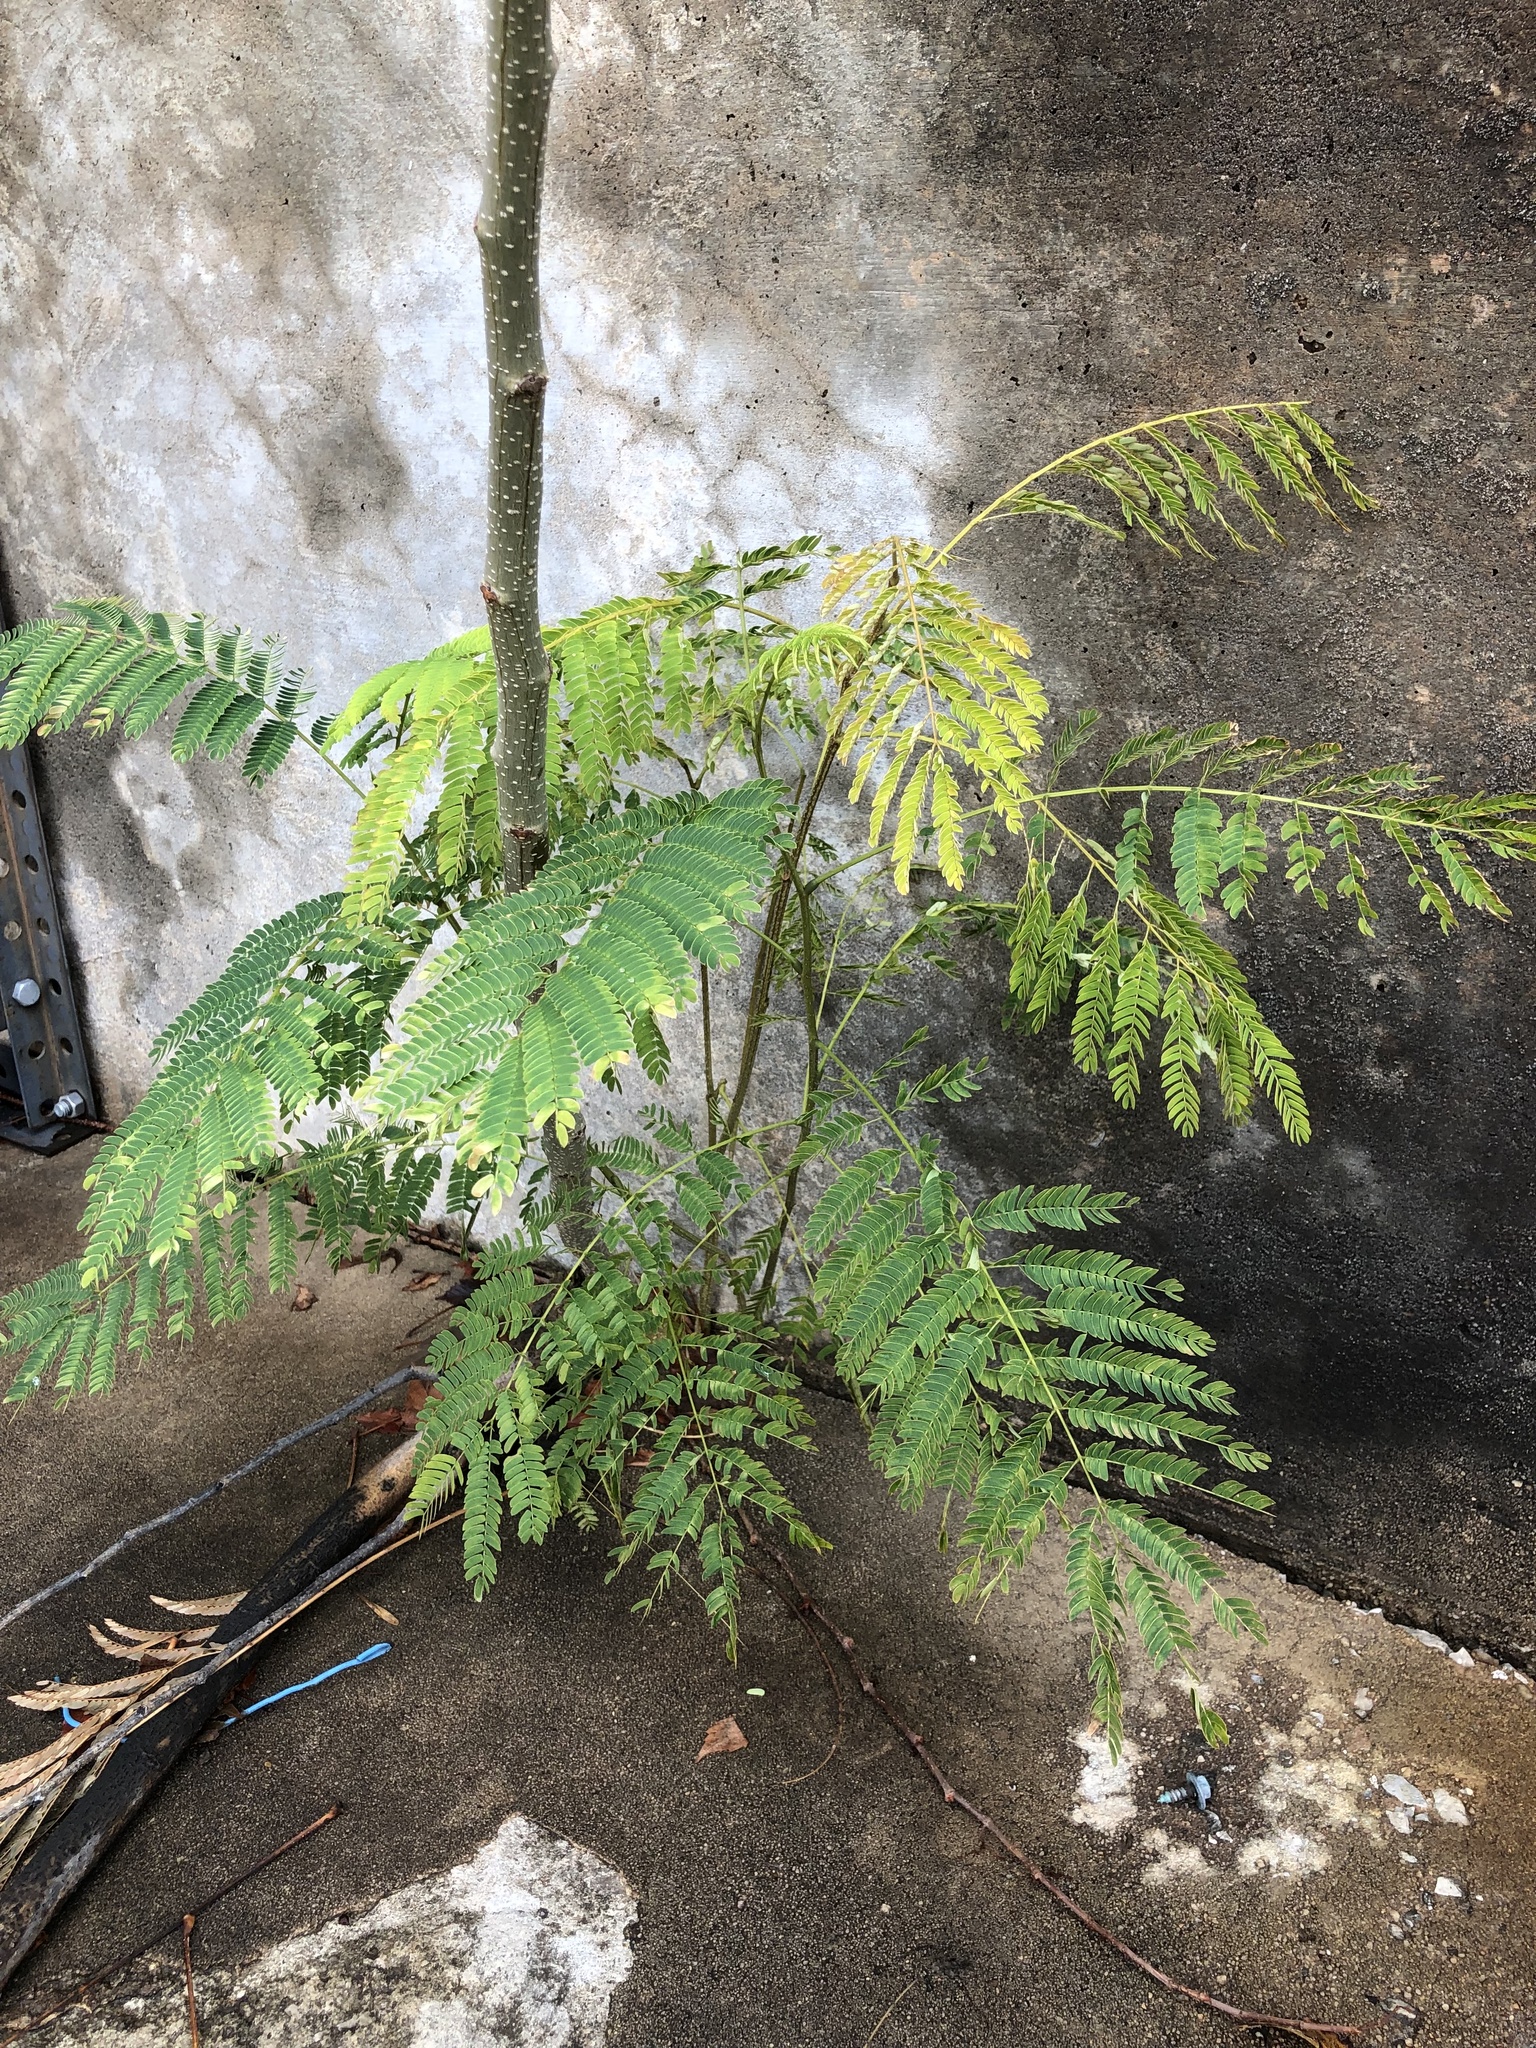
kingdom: Plantae
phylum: Tracheophyta
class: Magnoliopsida
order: Fabales
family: Fabaceae
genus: Albizia
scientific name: Albizia julibrissin
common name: Silktree
